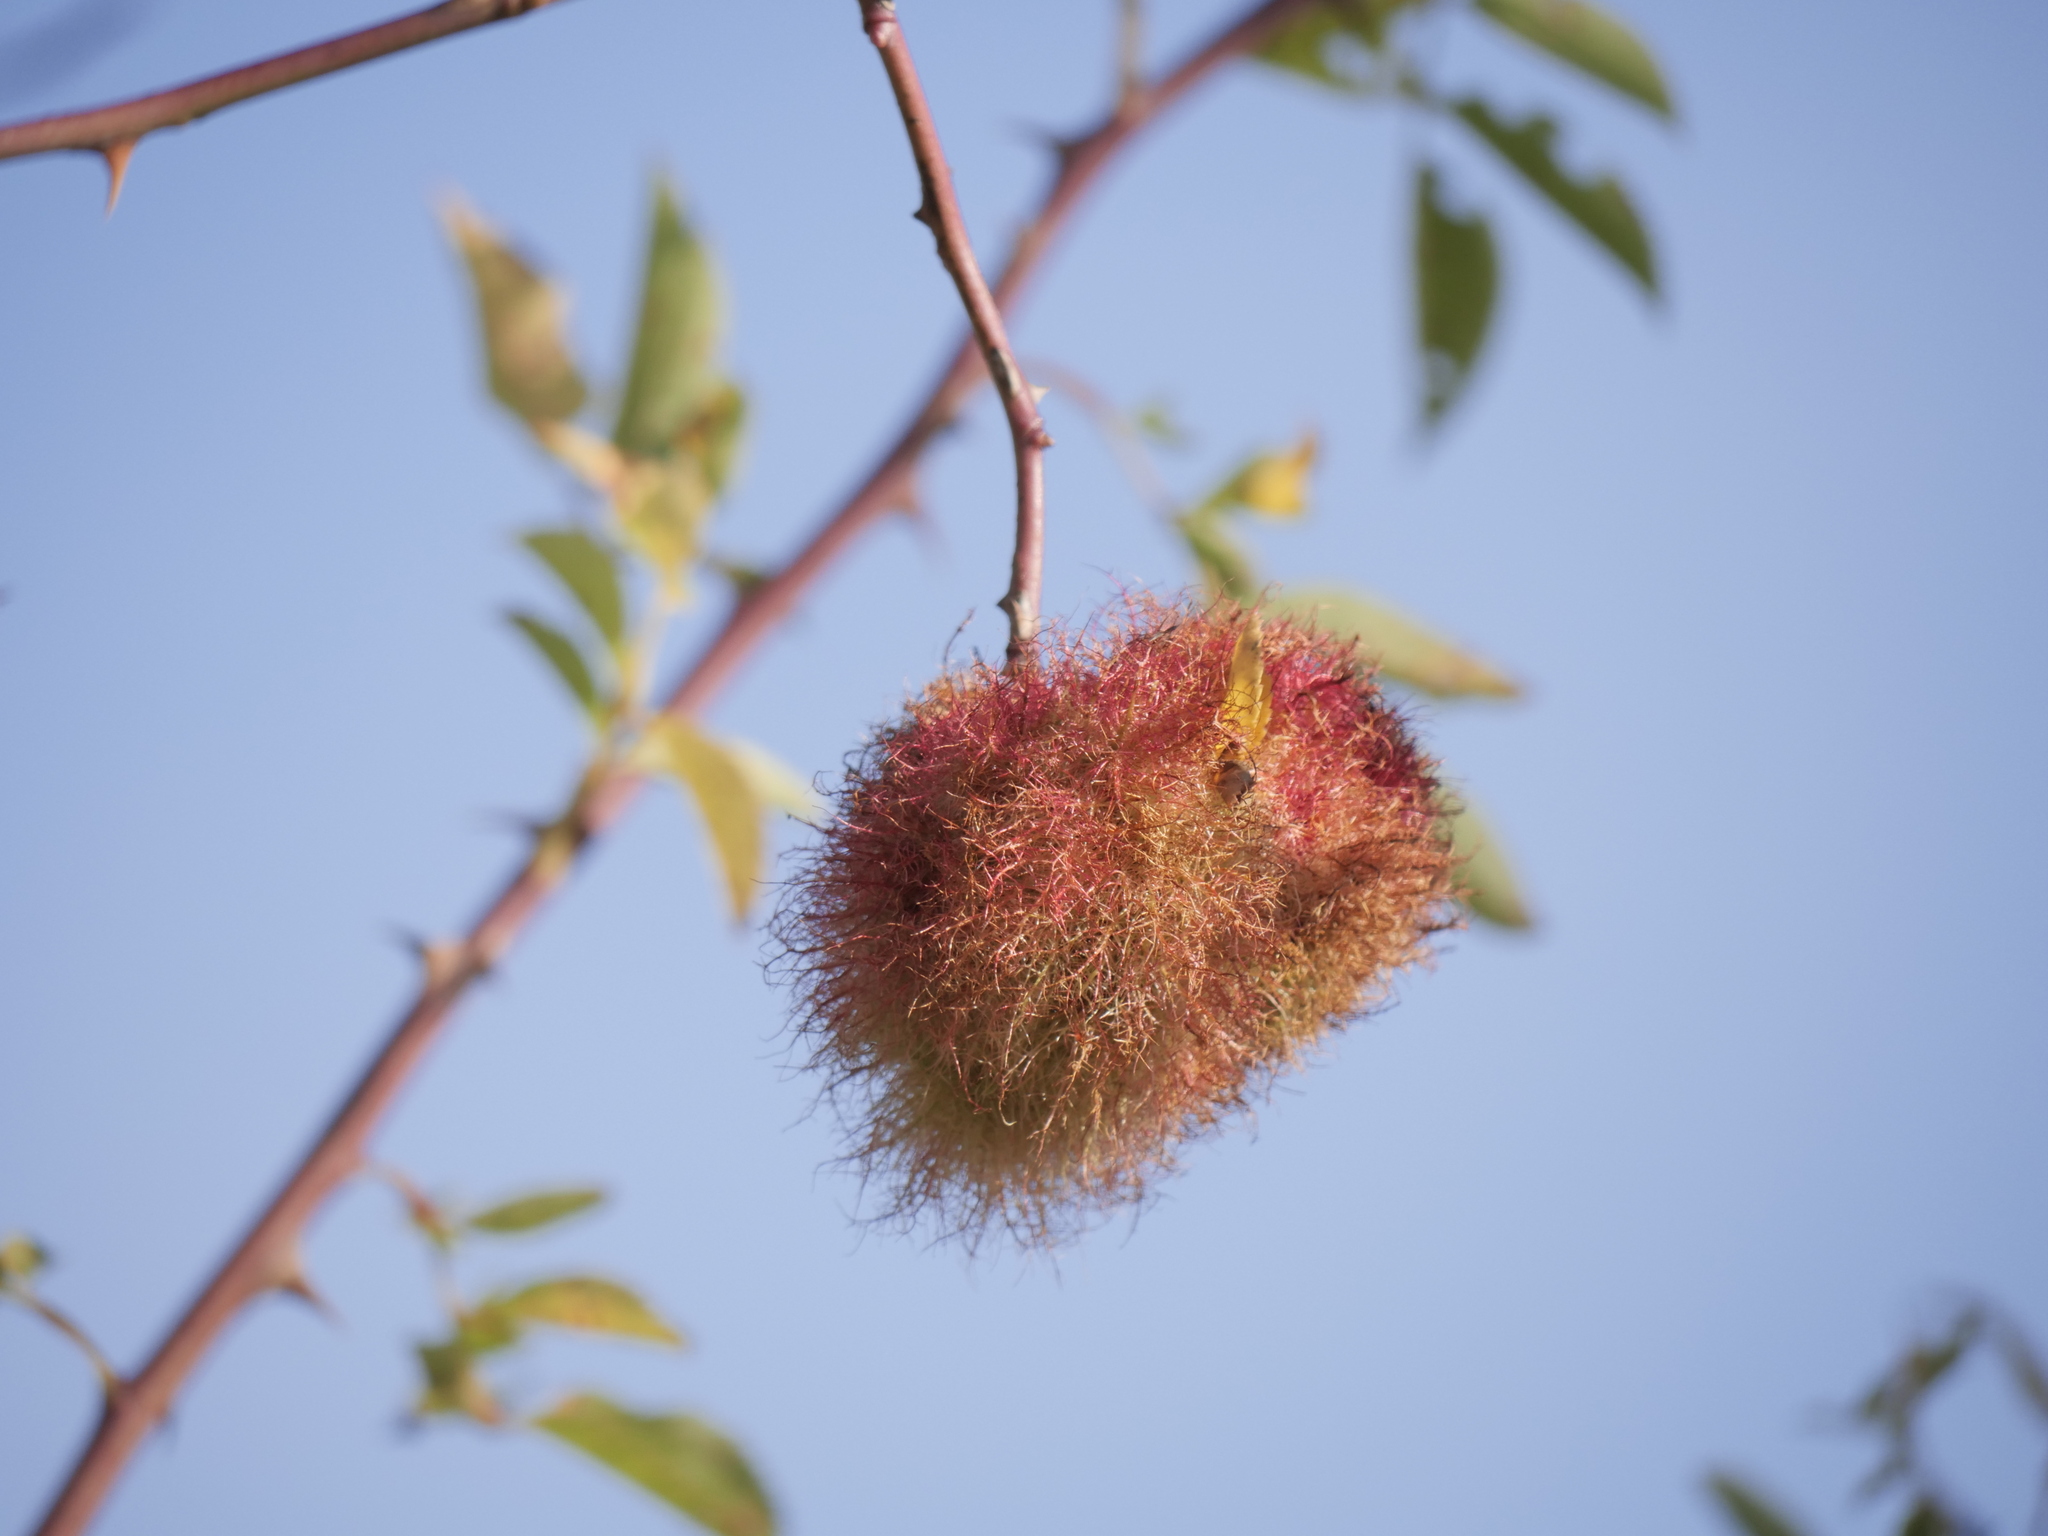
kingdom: Animalia
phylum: Arthropoda
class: Insecta
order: Hymenoptera
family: Cynipidae
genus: Diplolepis
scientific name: Diplolepis rosae
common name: Bedeguar gall
